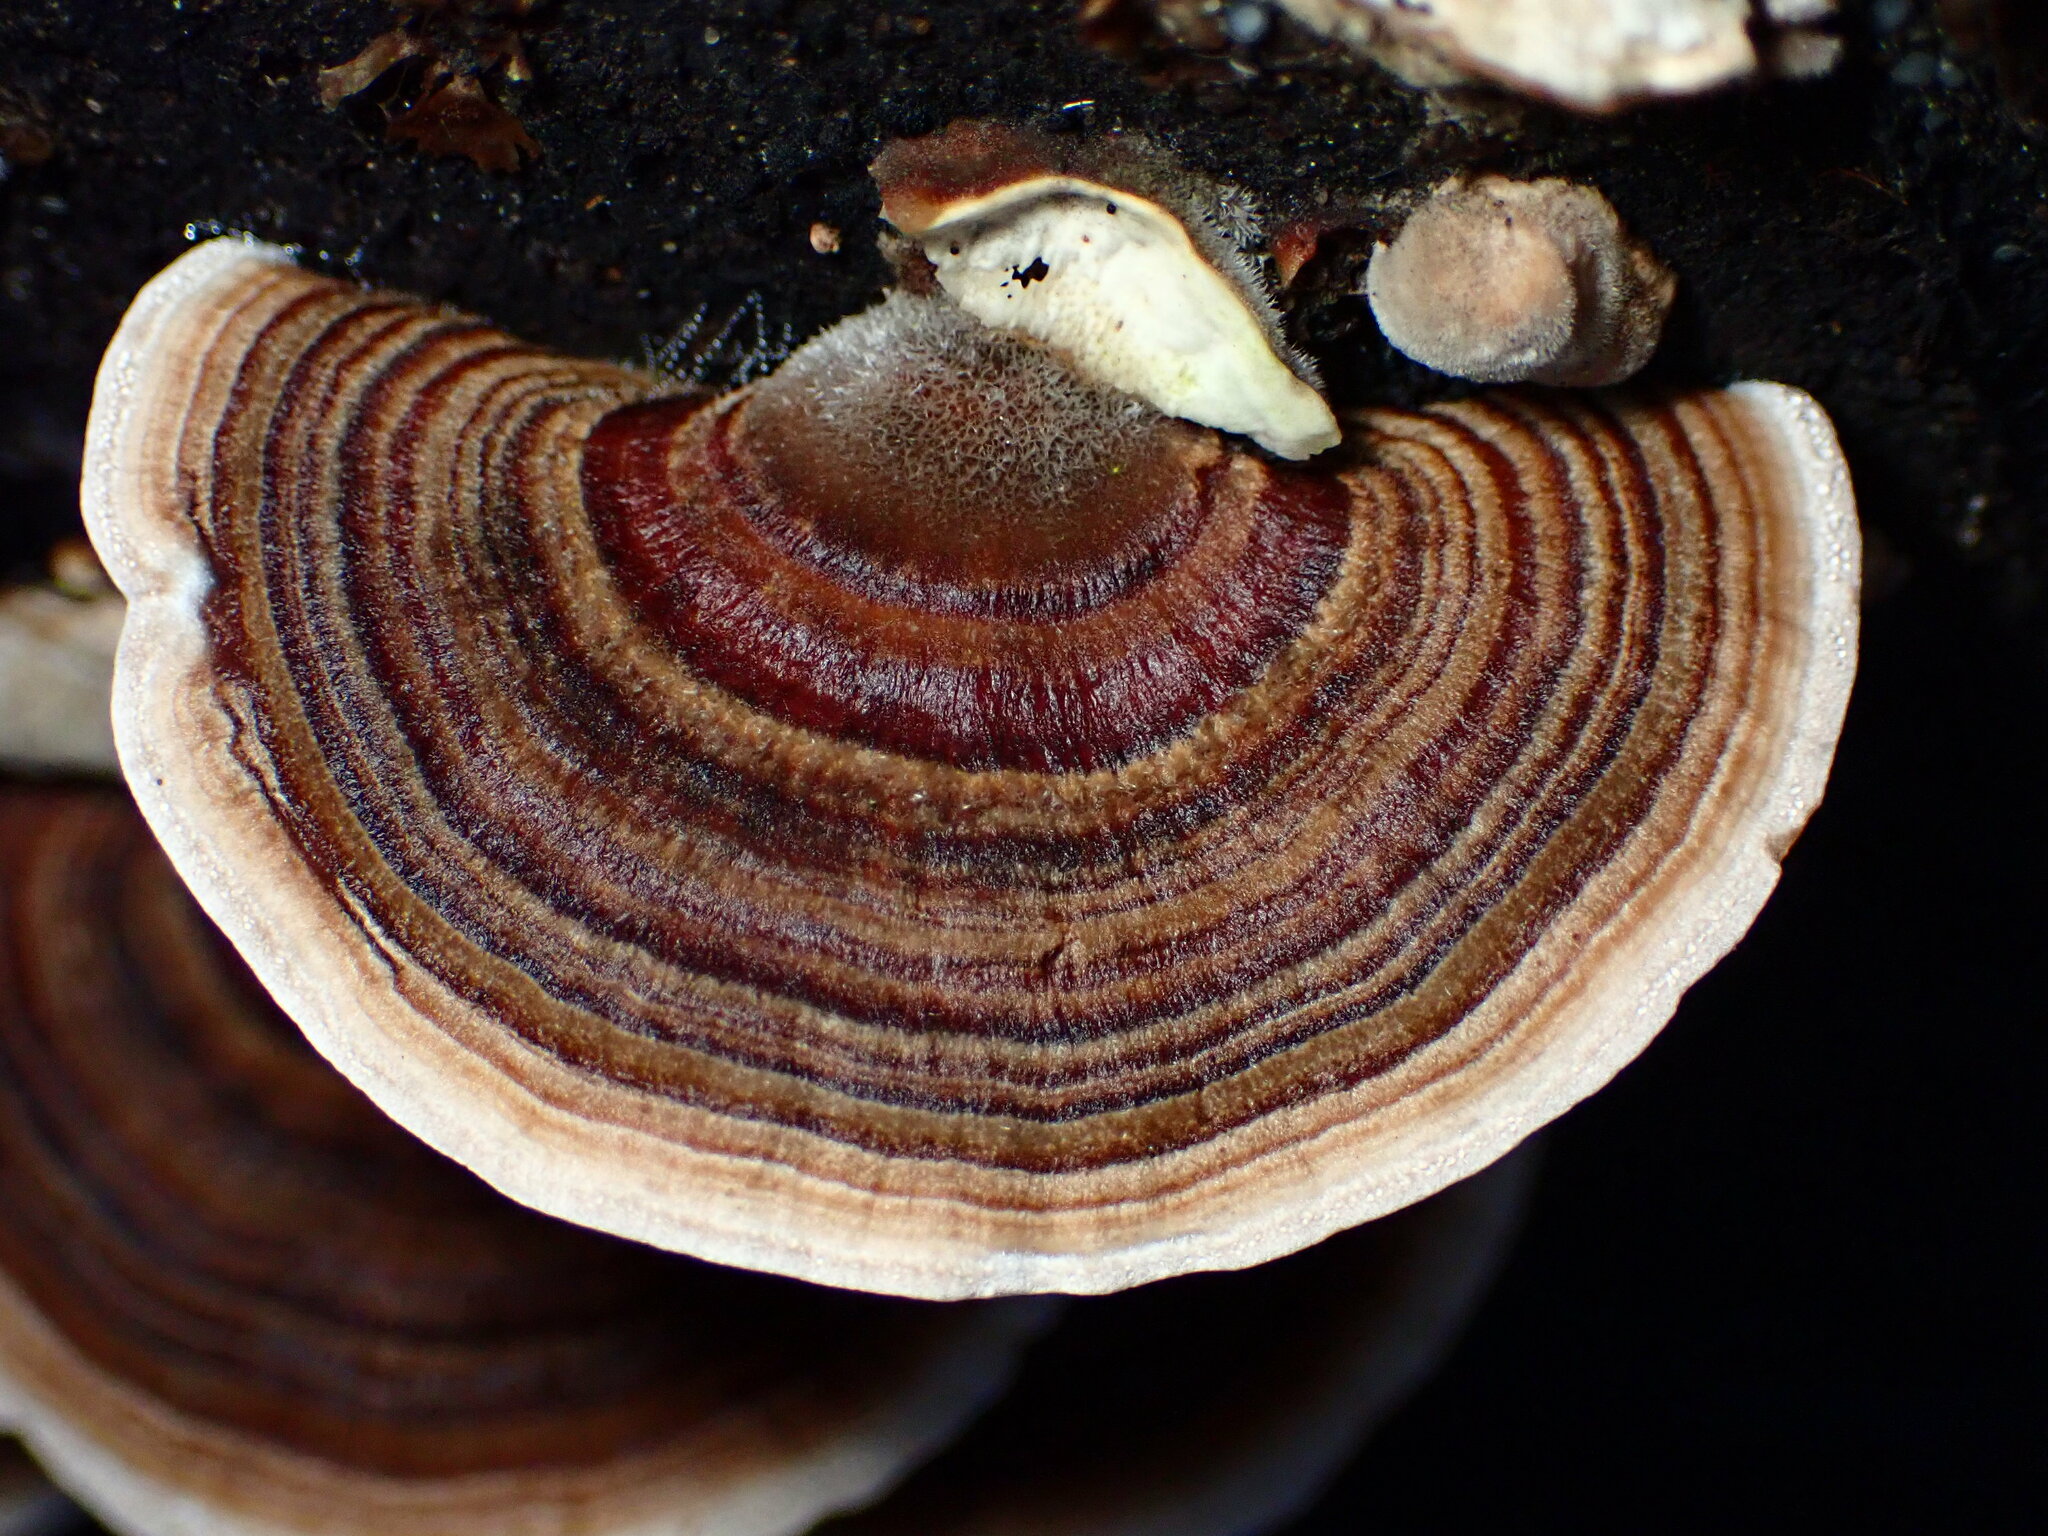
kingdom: Fungi
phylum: Basidiomycota
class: Agaricomycetes
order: Polyporales
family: Polyporaceae
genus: Trametes
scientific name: Trametes versicolor
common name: Turkeytail
